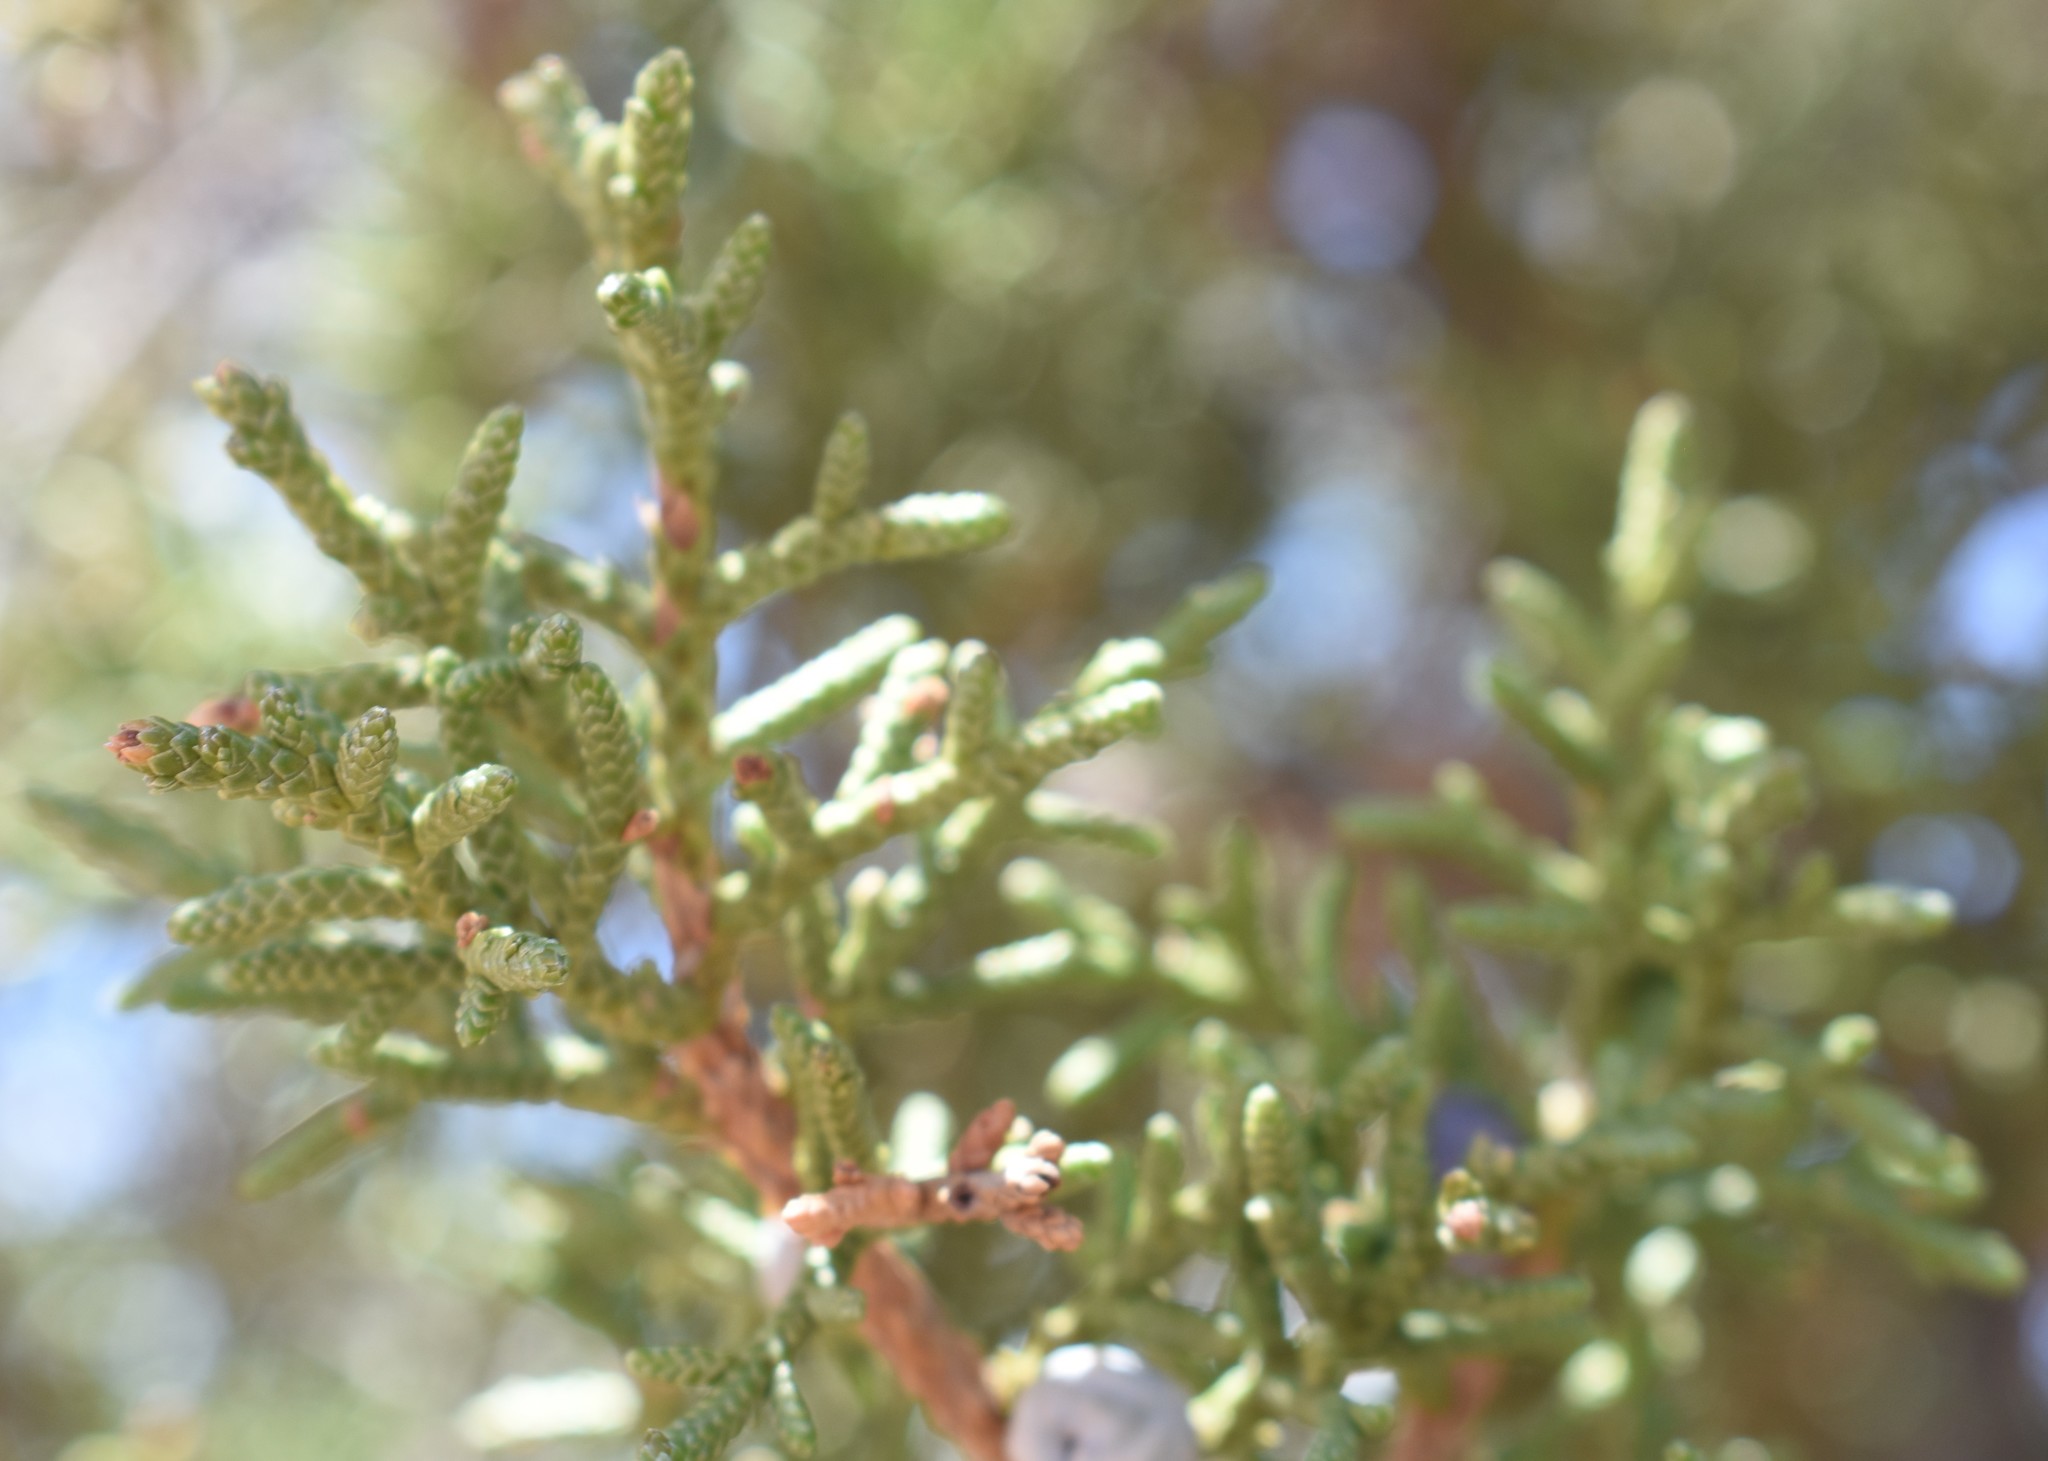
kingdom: Plantae
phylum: Tracheophyta
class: Pinopsida
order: Pinales
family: Cupressaceae
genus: Juniperus
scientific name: Juniperus osteosperma
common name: Utah juniper
